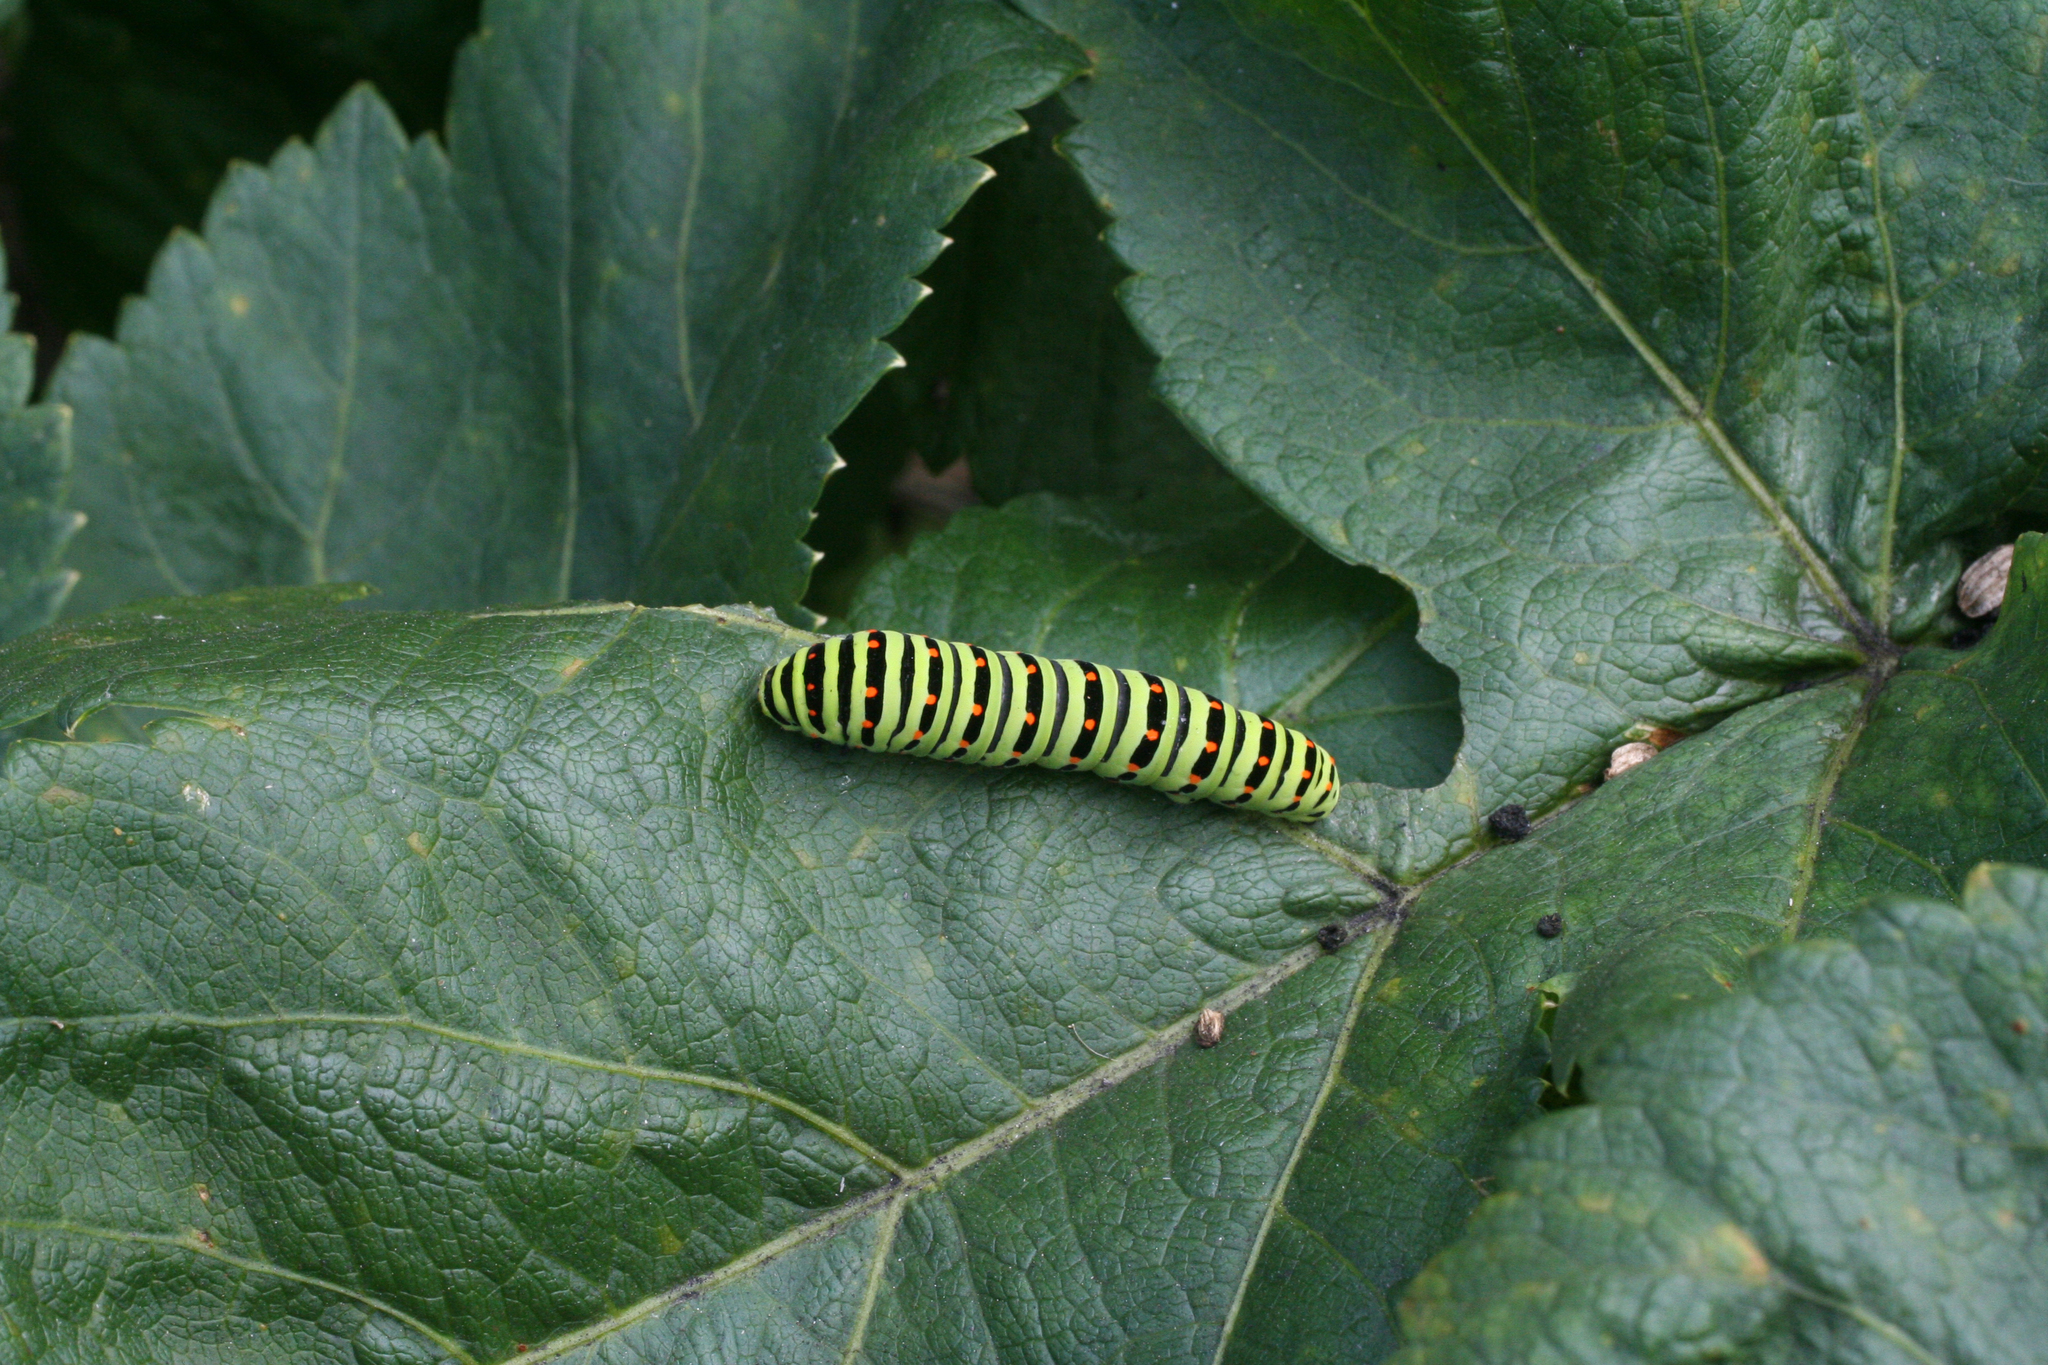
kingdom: Animalia
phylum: Arthropoda
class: Insecta
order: Lepidoptera
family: Papilionidae
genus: Papilio
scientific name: Papilio machaon
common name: Swallowtail
